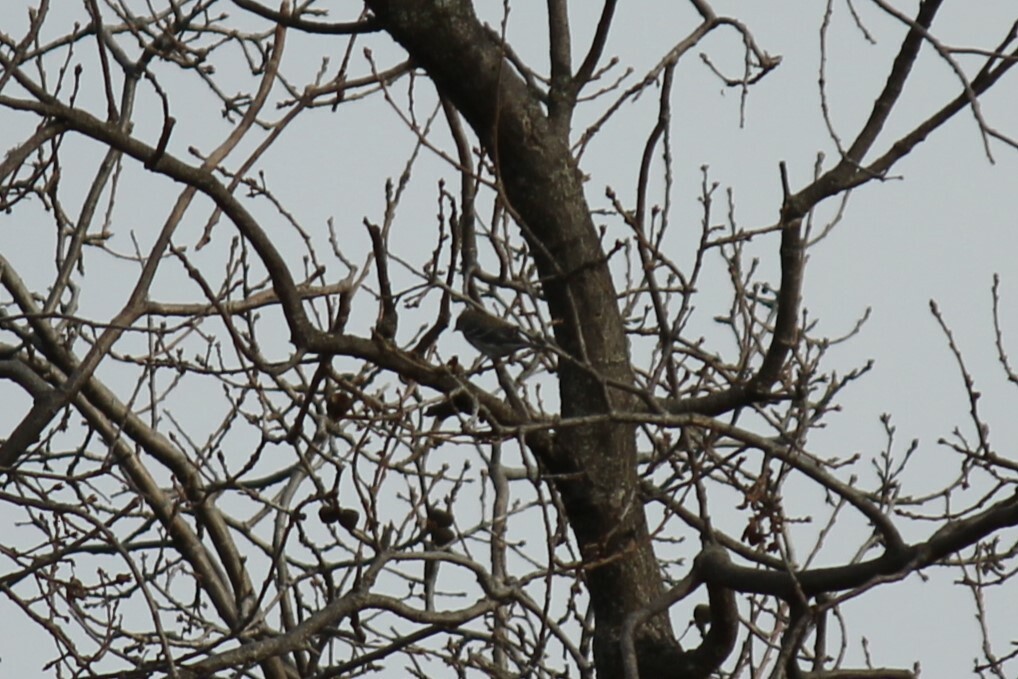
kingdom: Animalia
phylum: Chordata
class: Aves
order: Passeriformes
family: Parulidae
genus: Setophaga
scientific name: Setophaga coronata
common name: Myrtle warbler
